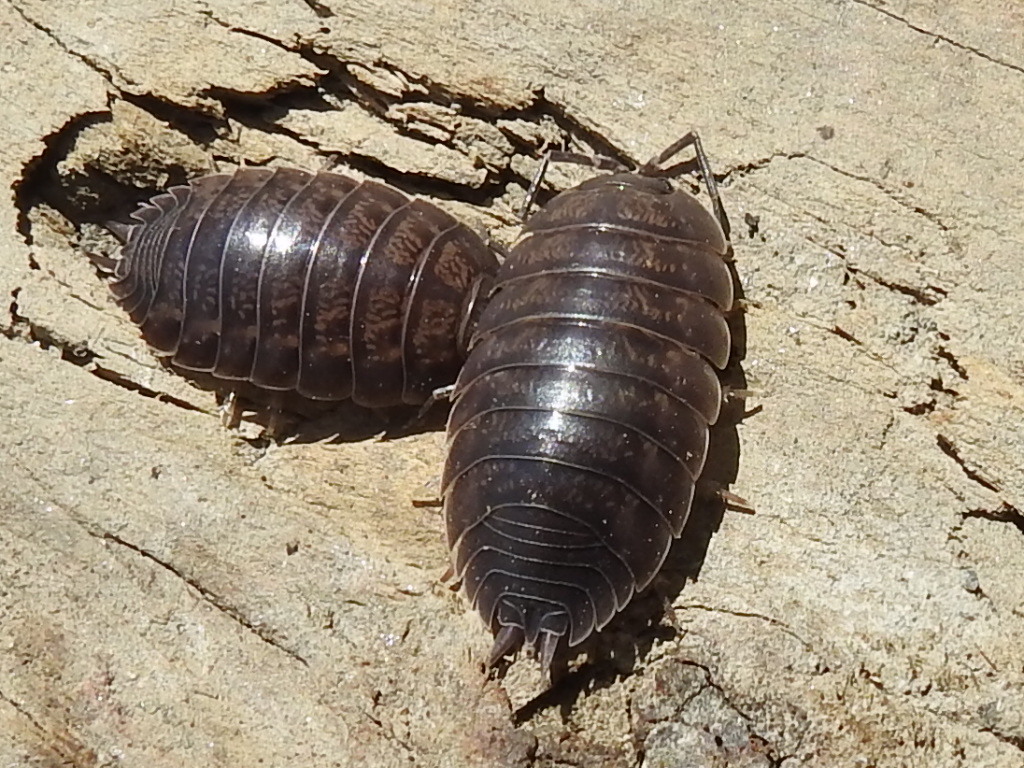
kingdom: Animalia
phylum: Arthropoda
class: Malacostraca
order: Isopoda
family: Porcellionidae
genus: Porcellio
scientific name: Porcellio laevis
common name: Swift woodlouse
